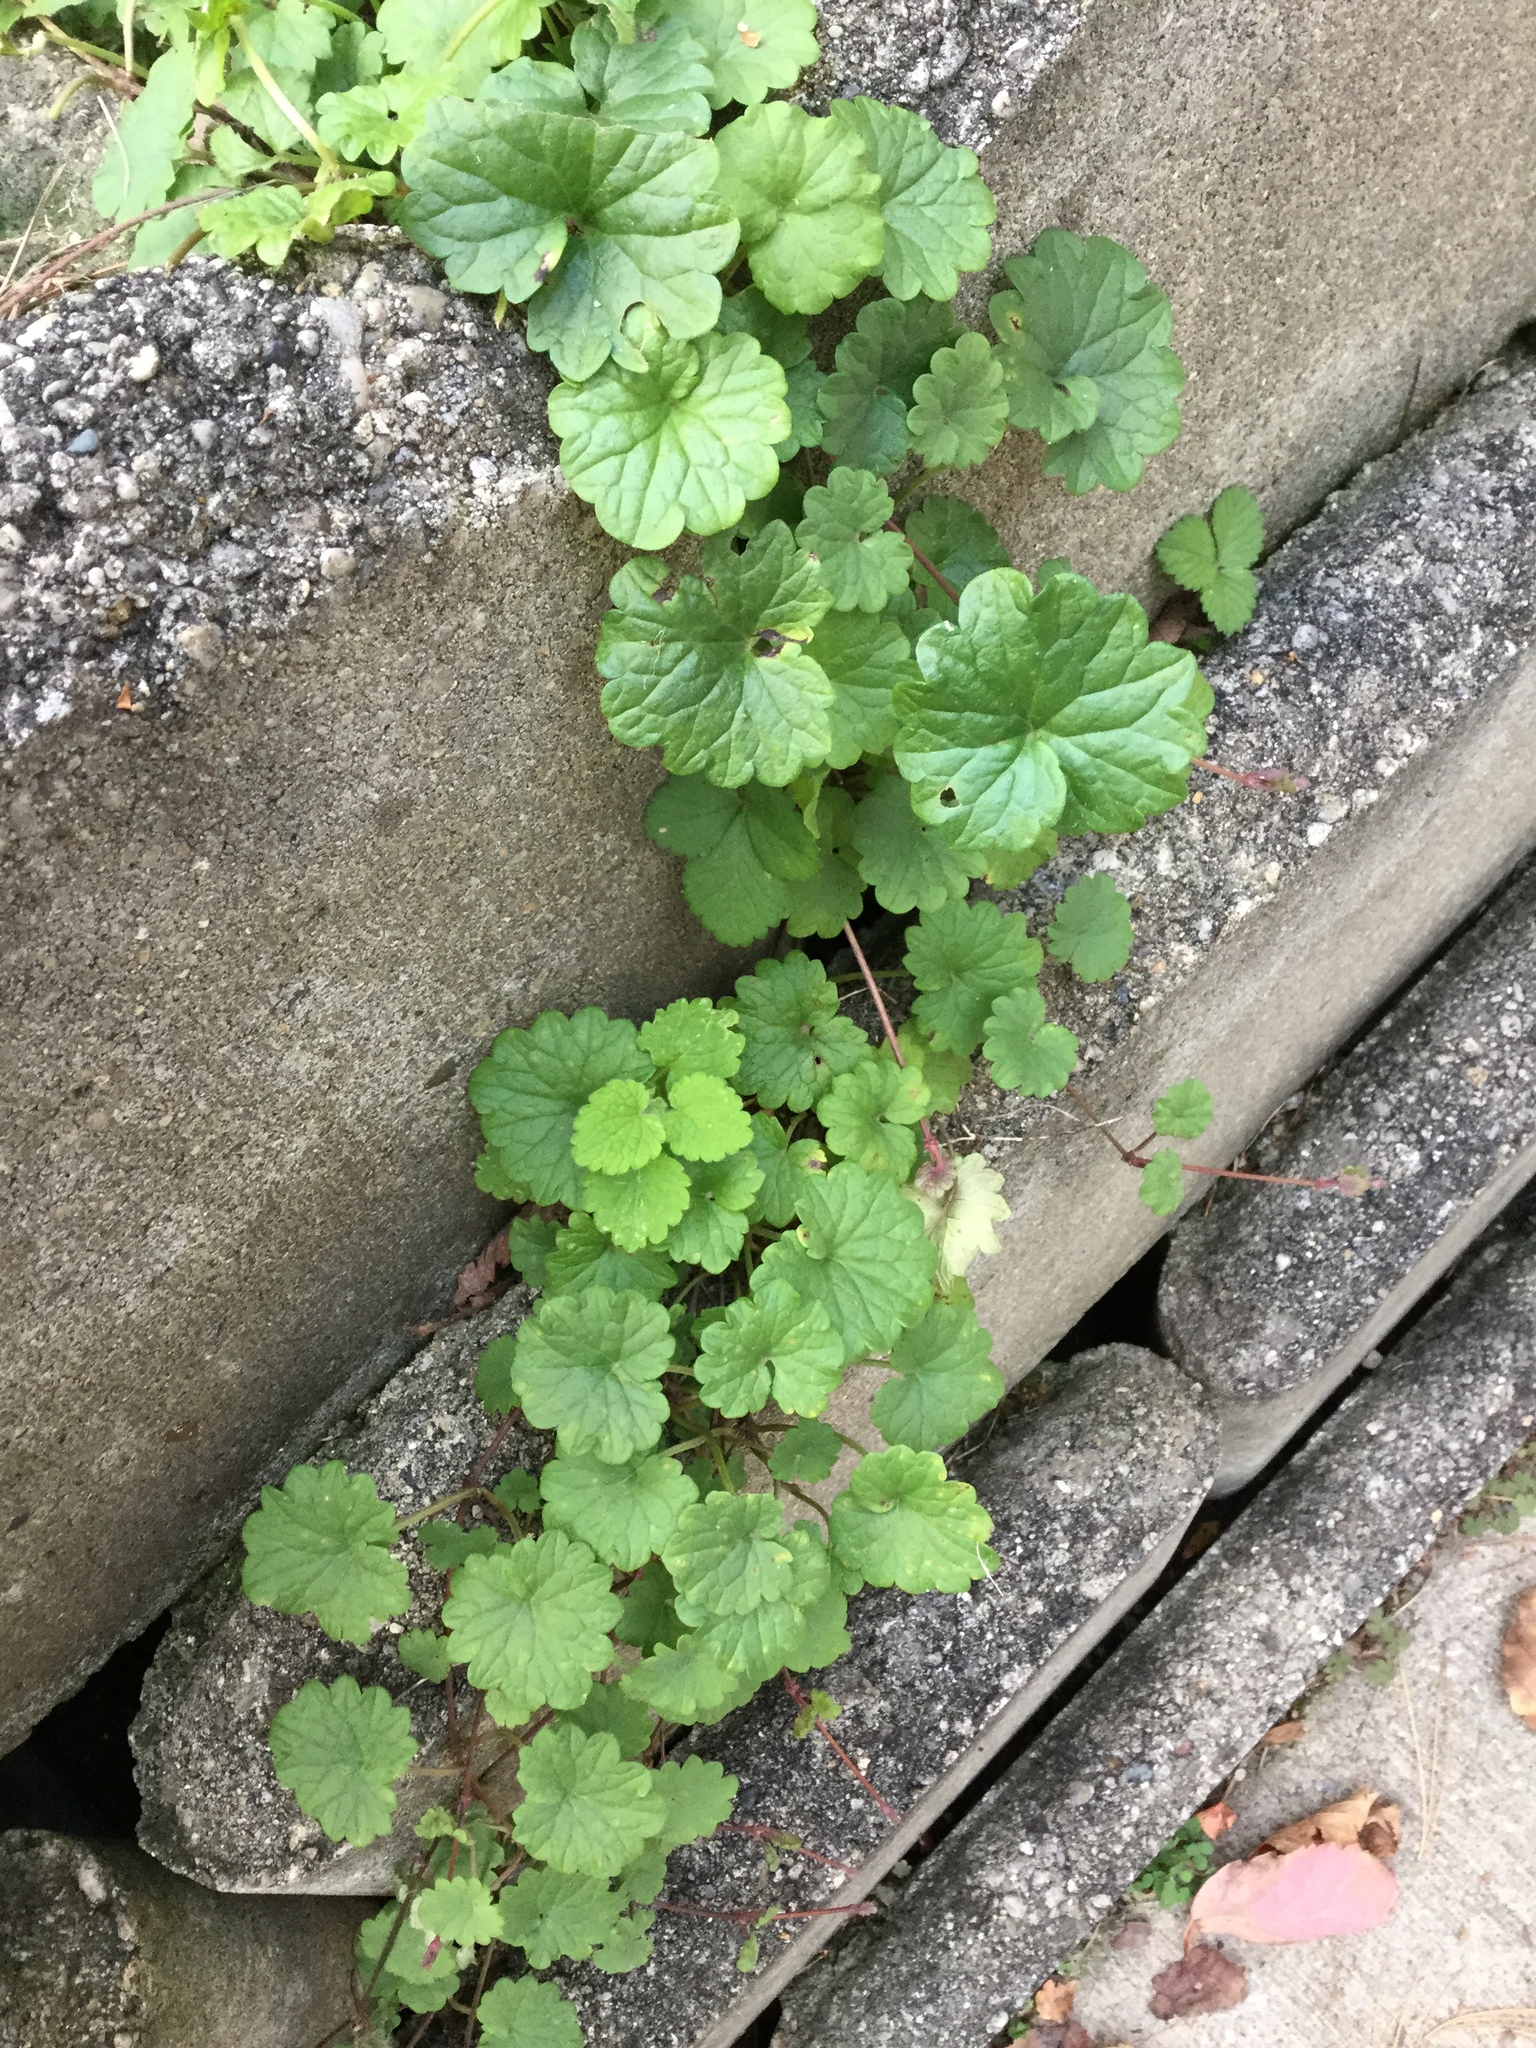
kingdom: Plantae
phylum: Tracheophyta
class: Magnoliopsida
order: Lamiales
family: Lamiaceae
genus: Glechoma
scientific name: Glechoma hederacea
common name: Ground ivy
